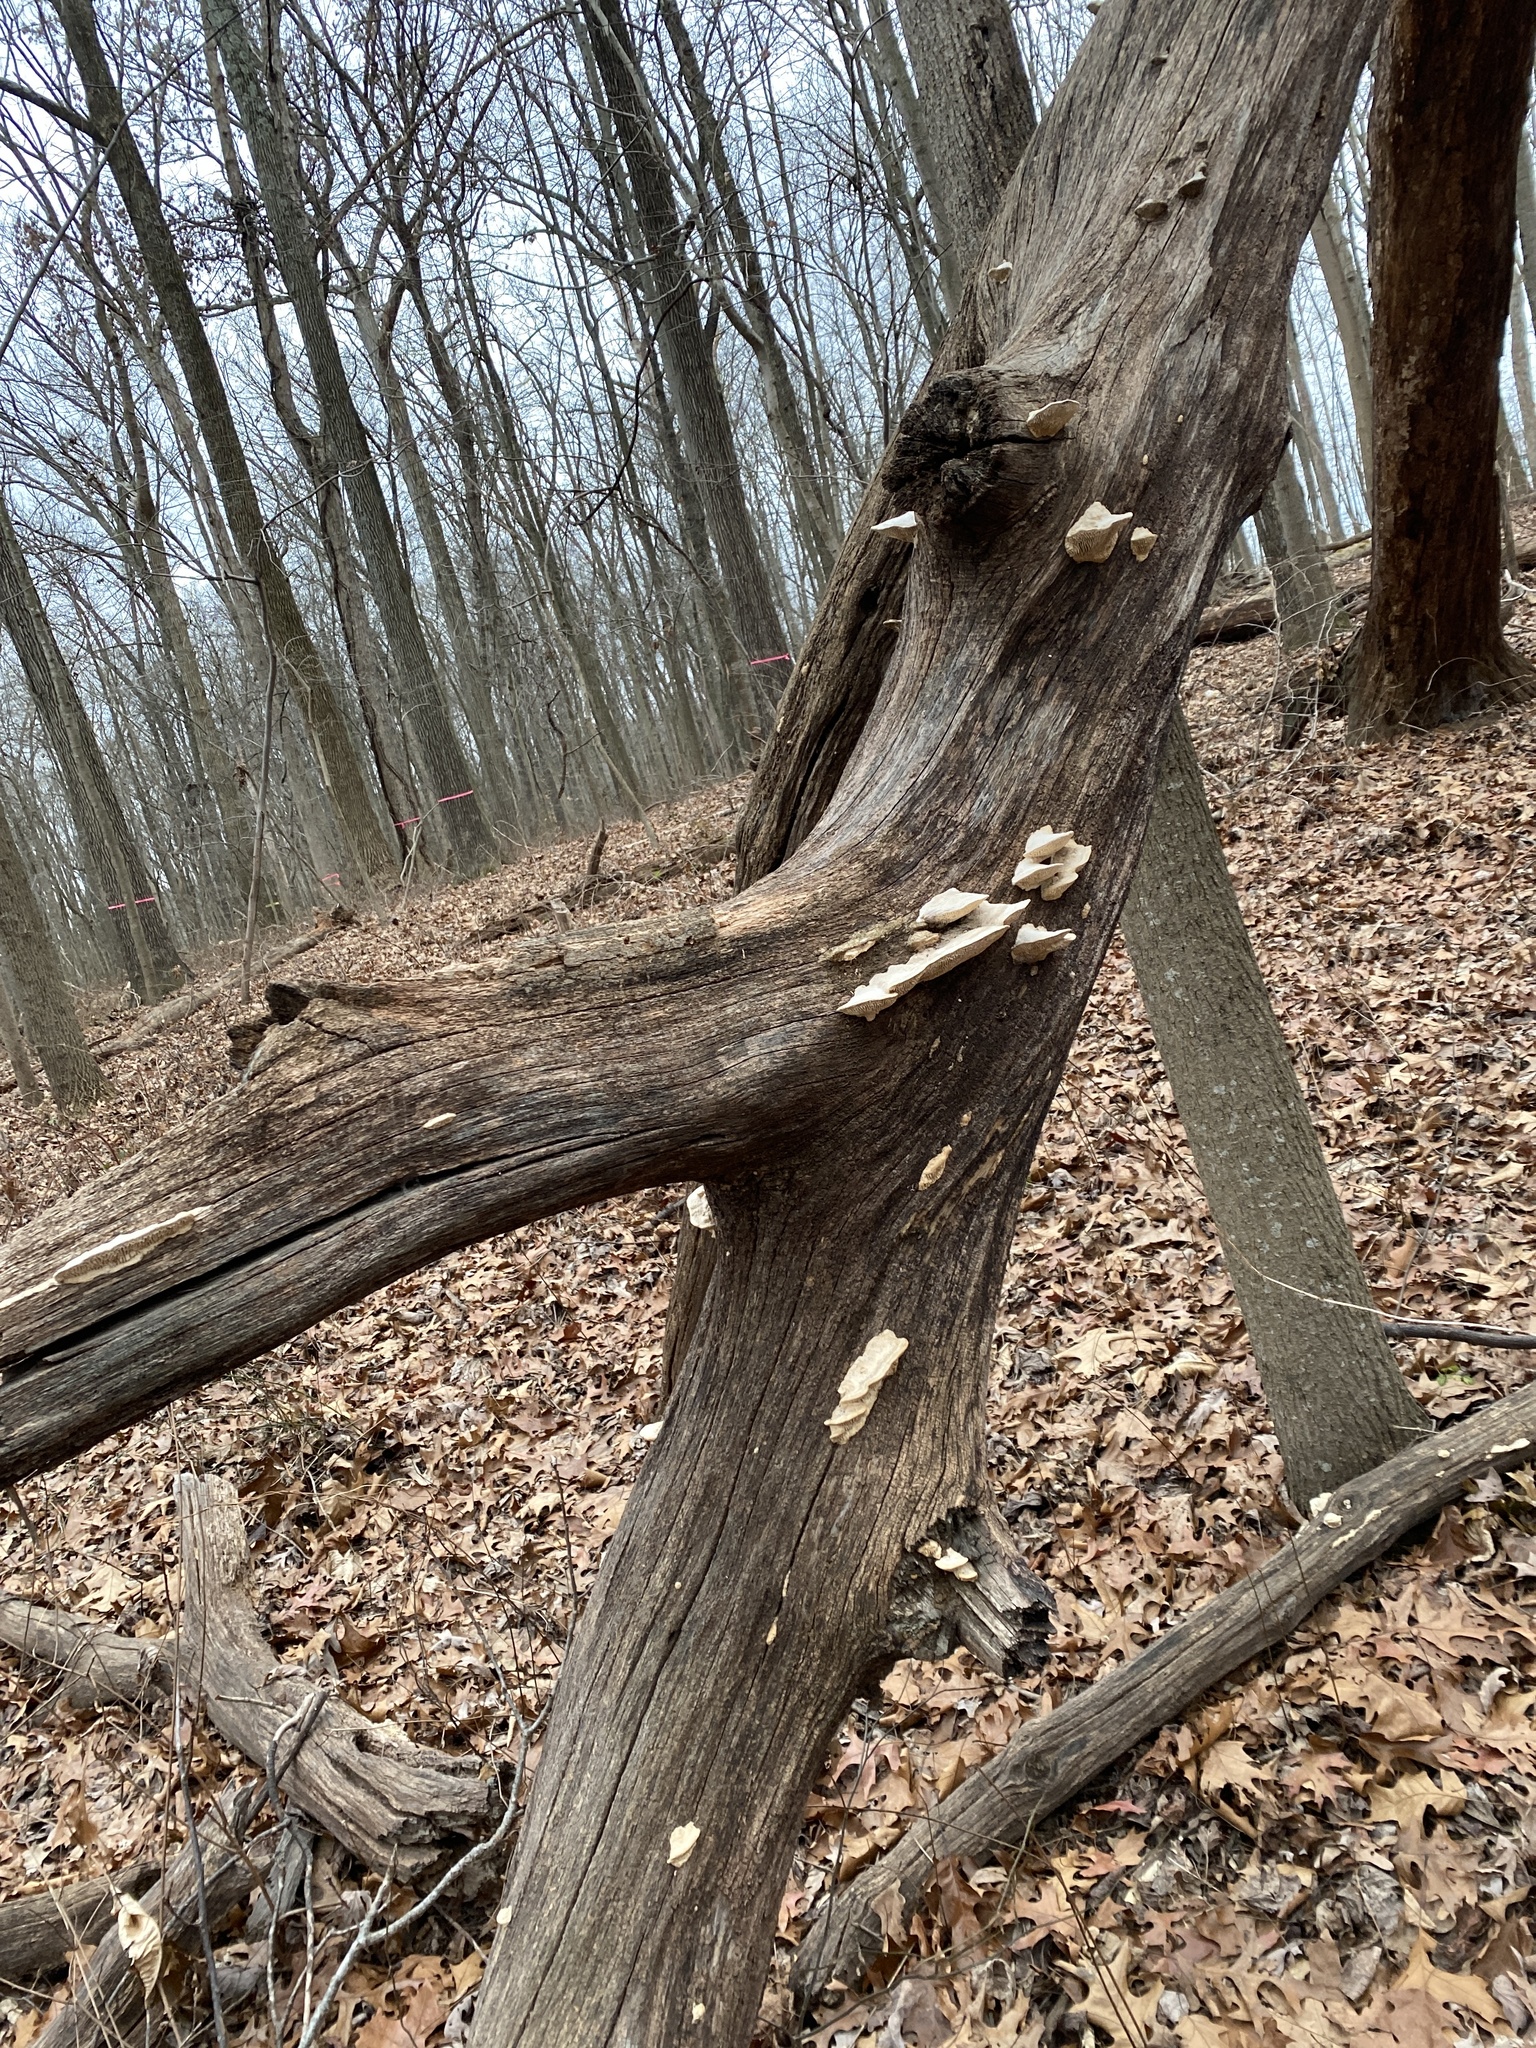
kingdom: Fungi
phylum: Basidiomycota
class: Agaricomycetes
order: Polyporales
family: Fomitopsidaceae
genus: Fomitopsis
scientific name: Fomitopsis
